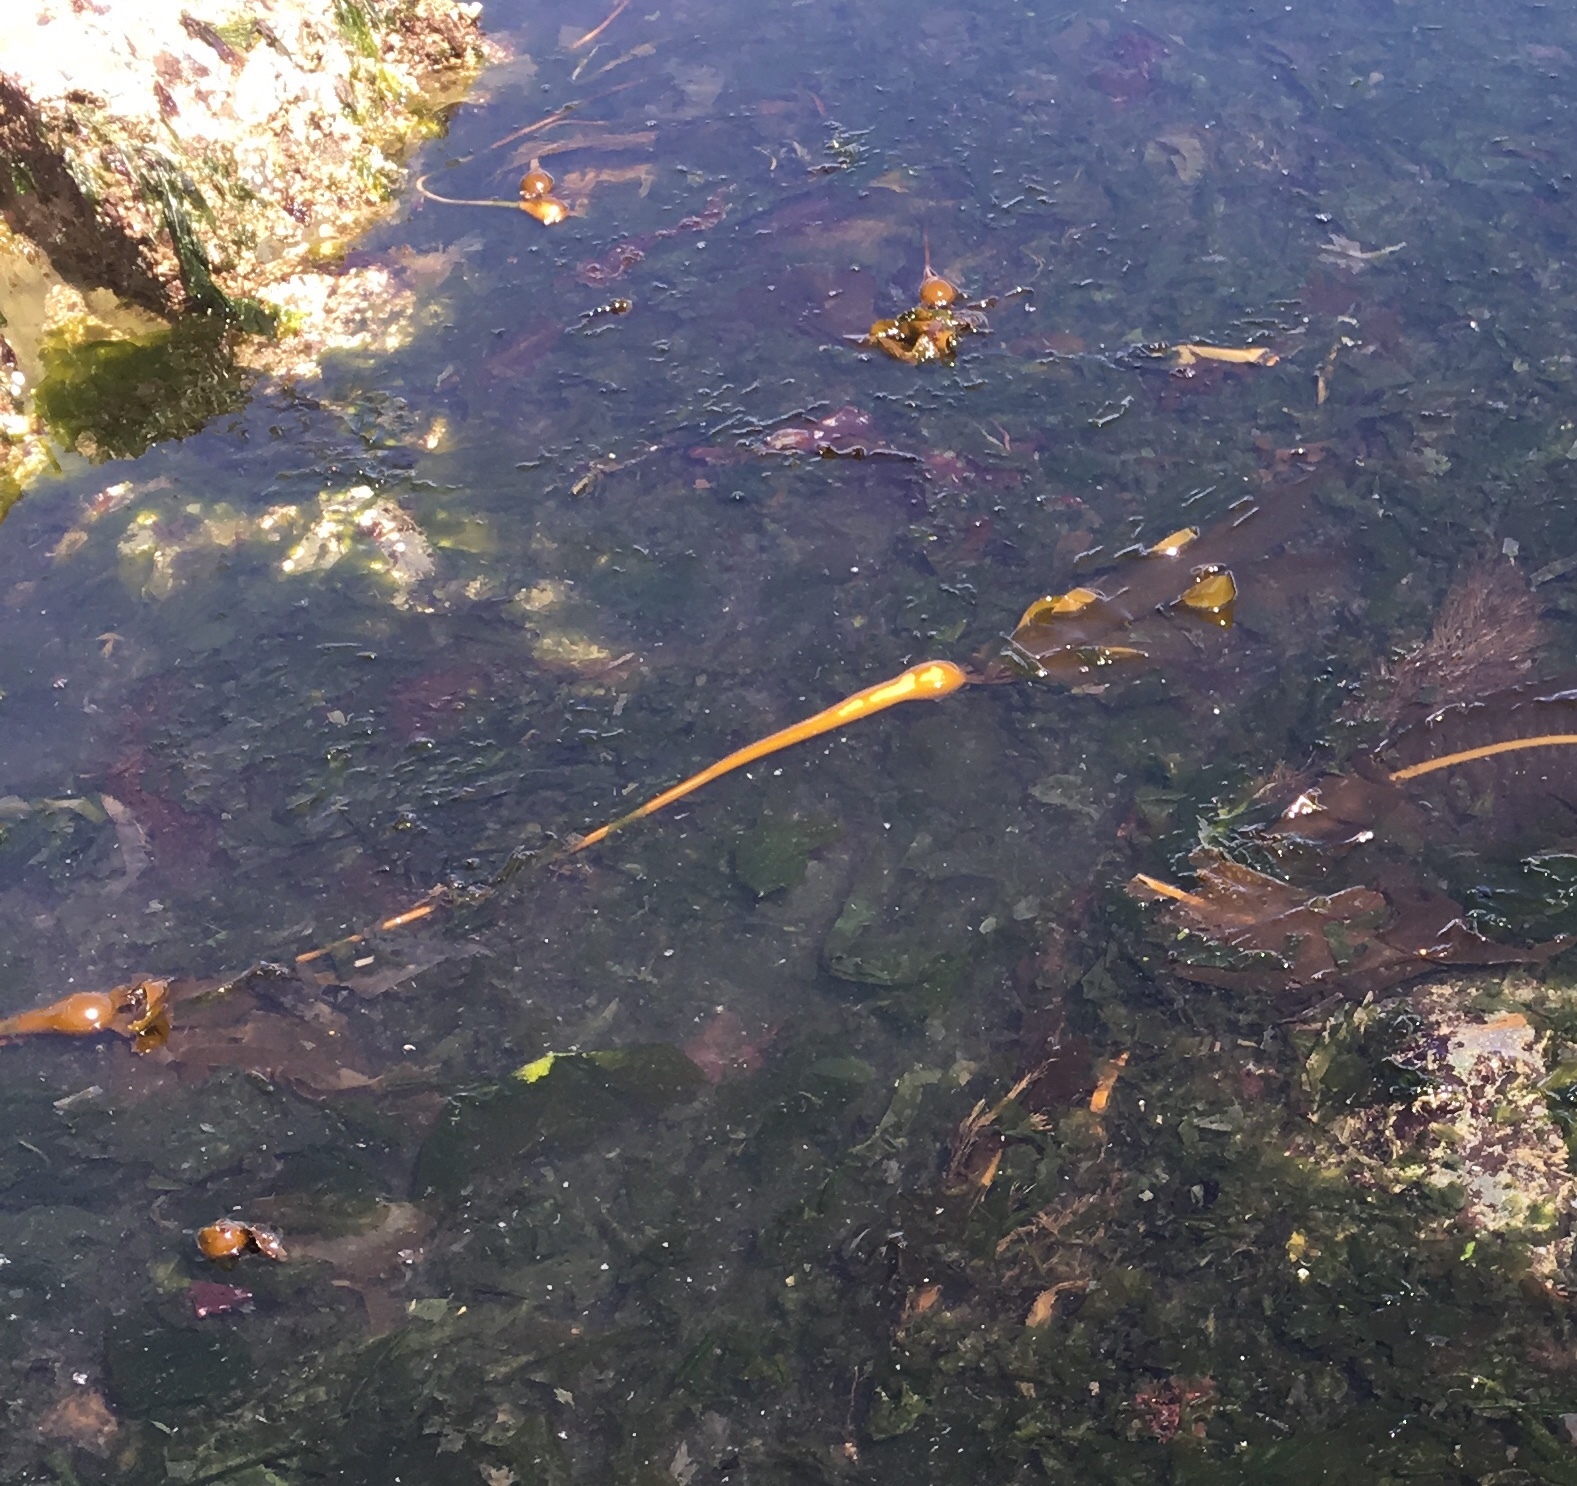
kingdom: Chromista
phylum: Ochrophyta
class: Phaeophyceae
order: Laminariales
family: Laminariaceae
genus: Nereocystis
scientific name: Nereocystis luetkeana
